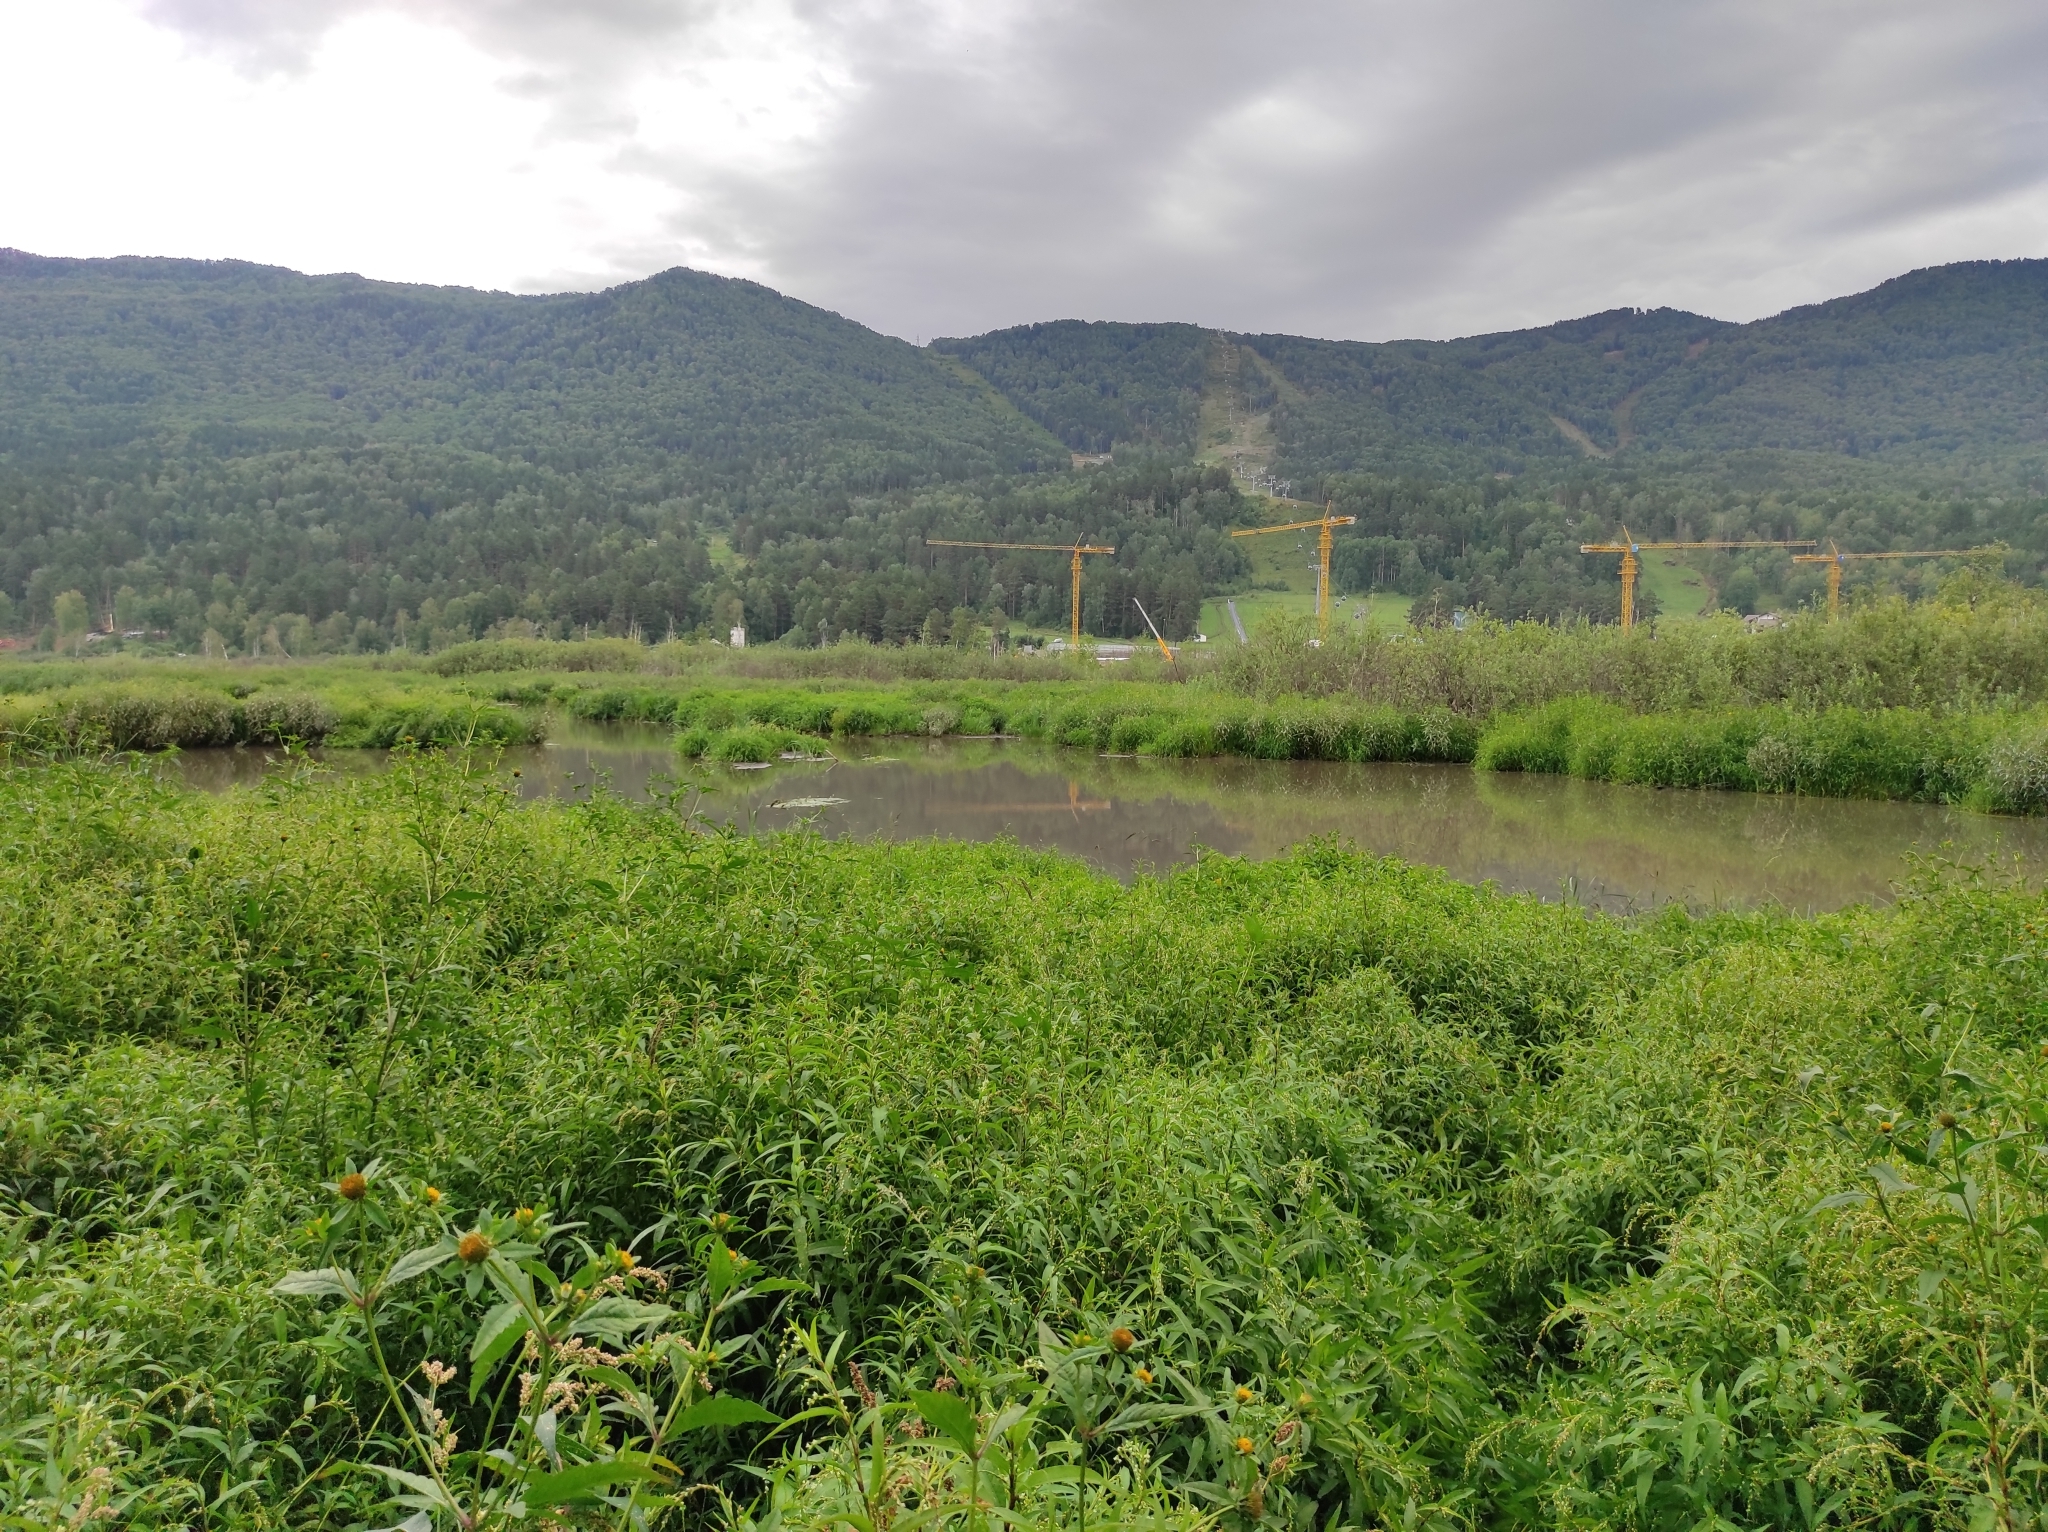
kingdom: Plantae
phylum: Tracheophyta
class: Pinopsida
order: Pinales
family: Pinaceae
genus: Pinus
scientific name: Pinus sylvestris
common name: Scots pine
